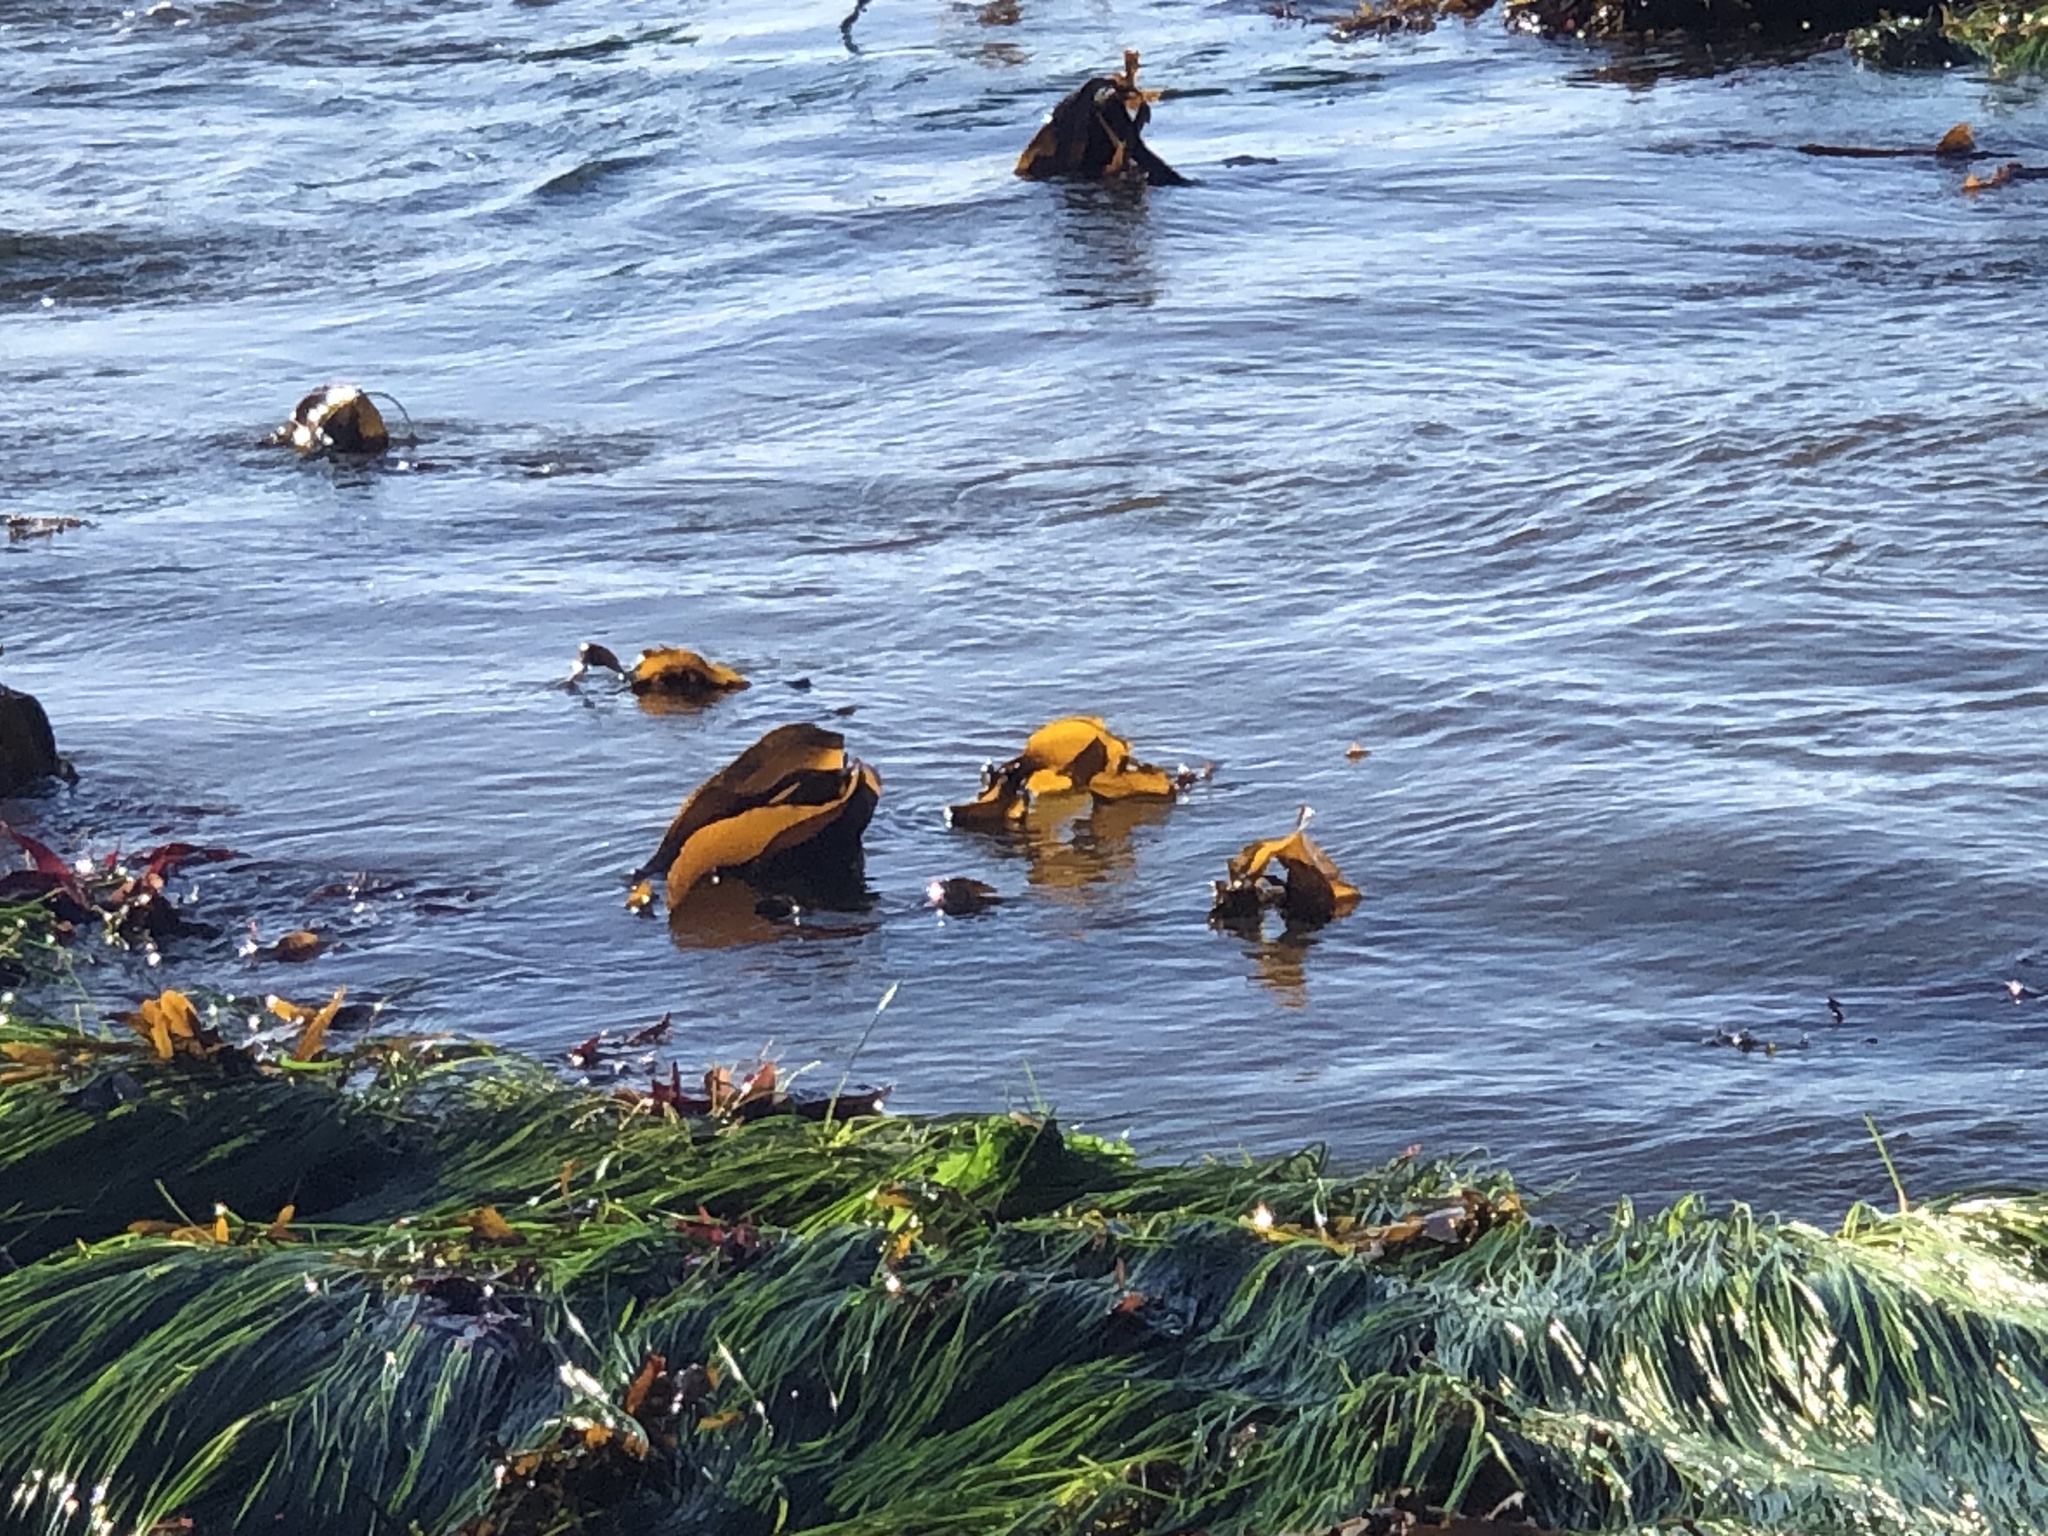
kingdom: Chromista
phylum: Ochrophyta
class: Phaeophyceae
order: Laminariales
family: Laminariaceae
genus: Laminaria
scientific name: Laminaria setchellii
